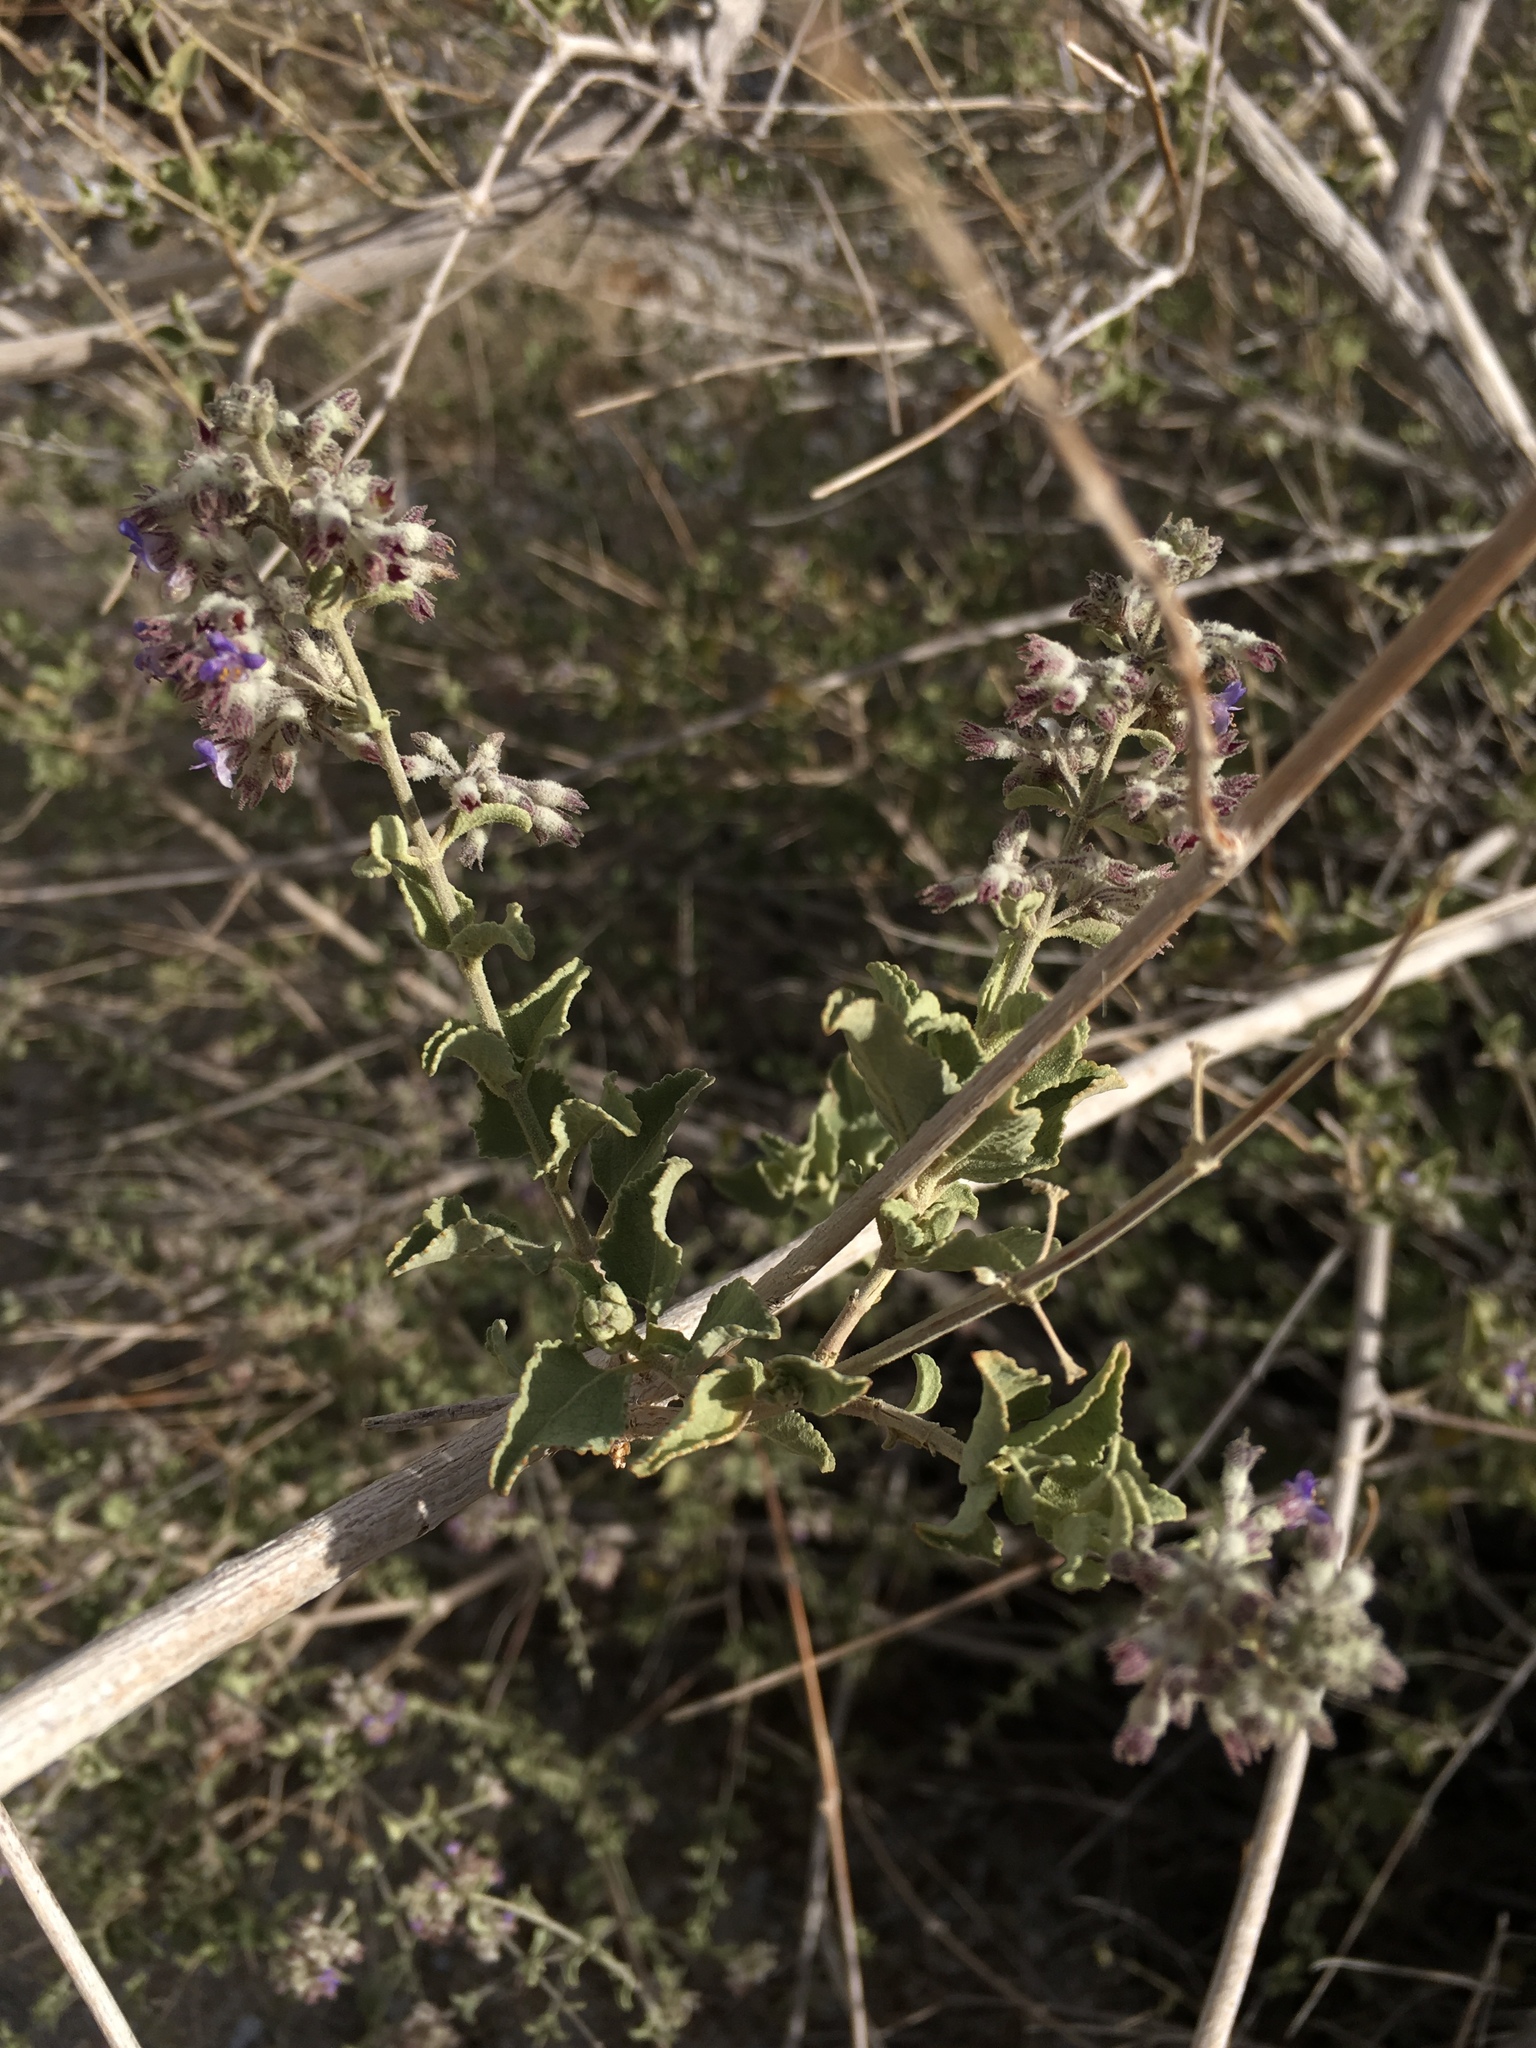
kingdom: Plantae
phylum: Tracheophyta
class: Magnoliopsida
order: Lamiales
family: Lamiaceae
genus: Condea
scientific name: Condea emoryi
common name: Chia
